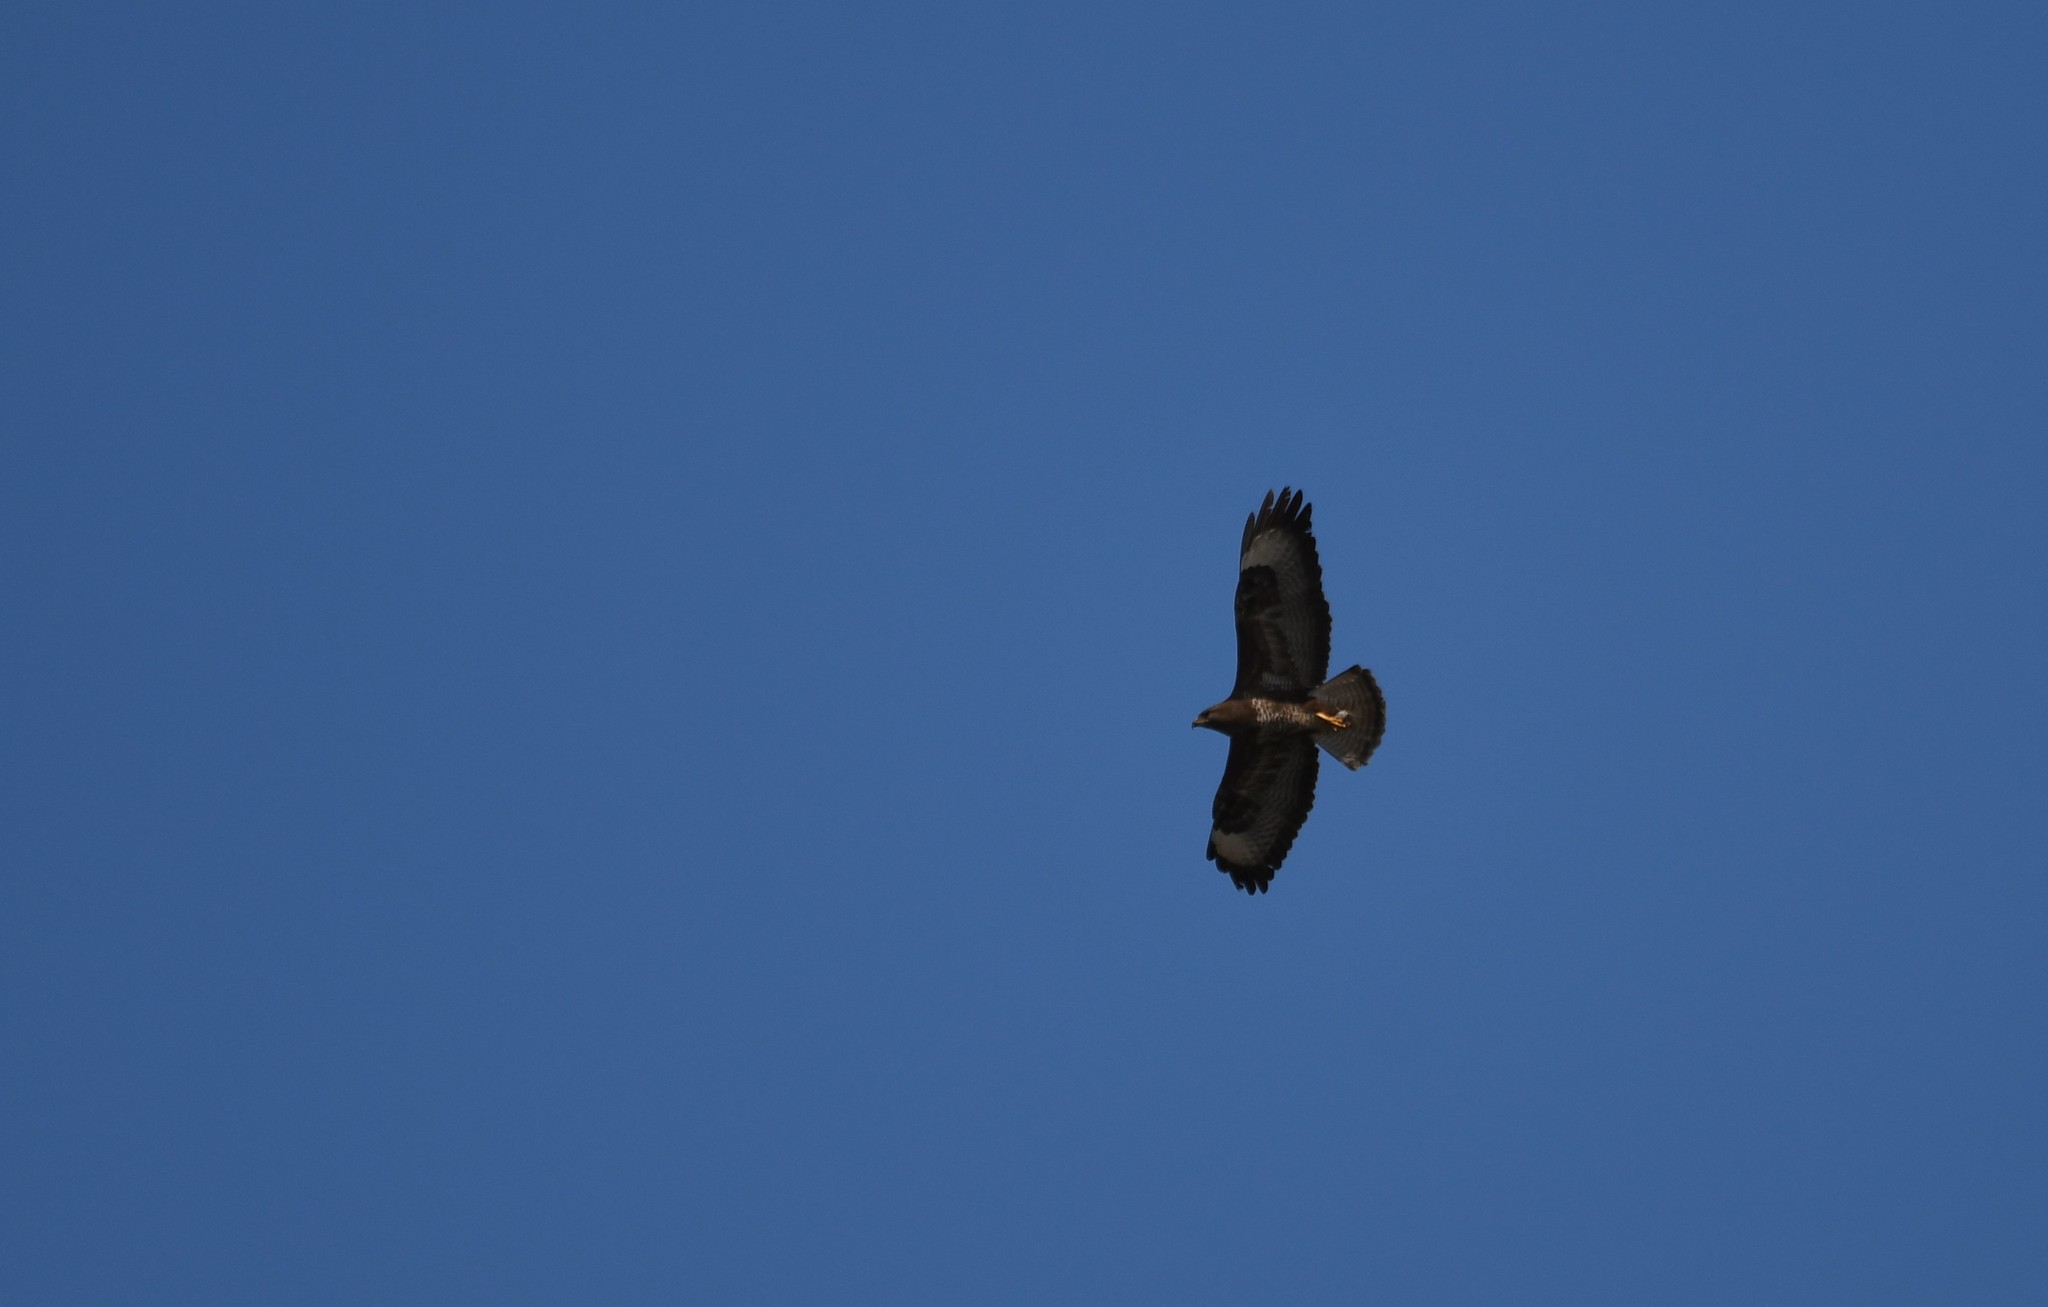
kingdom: Animalia
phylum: Chordata
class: Aves
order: Accipitriformes
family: Accipitridae
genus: Buteo
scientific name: Buteo buteo
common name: Common buzzard
